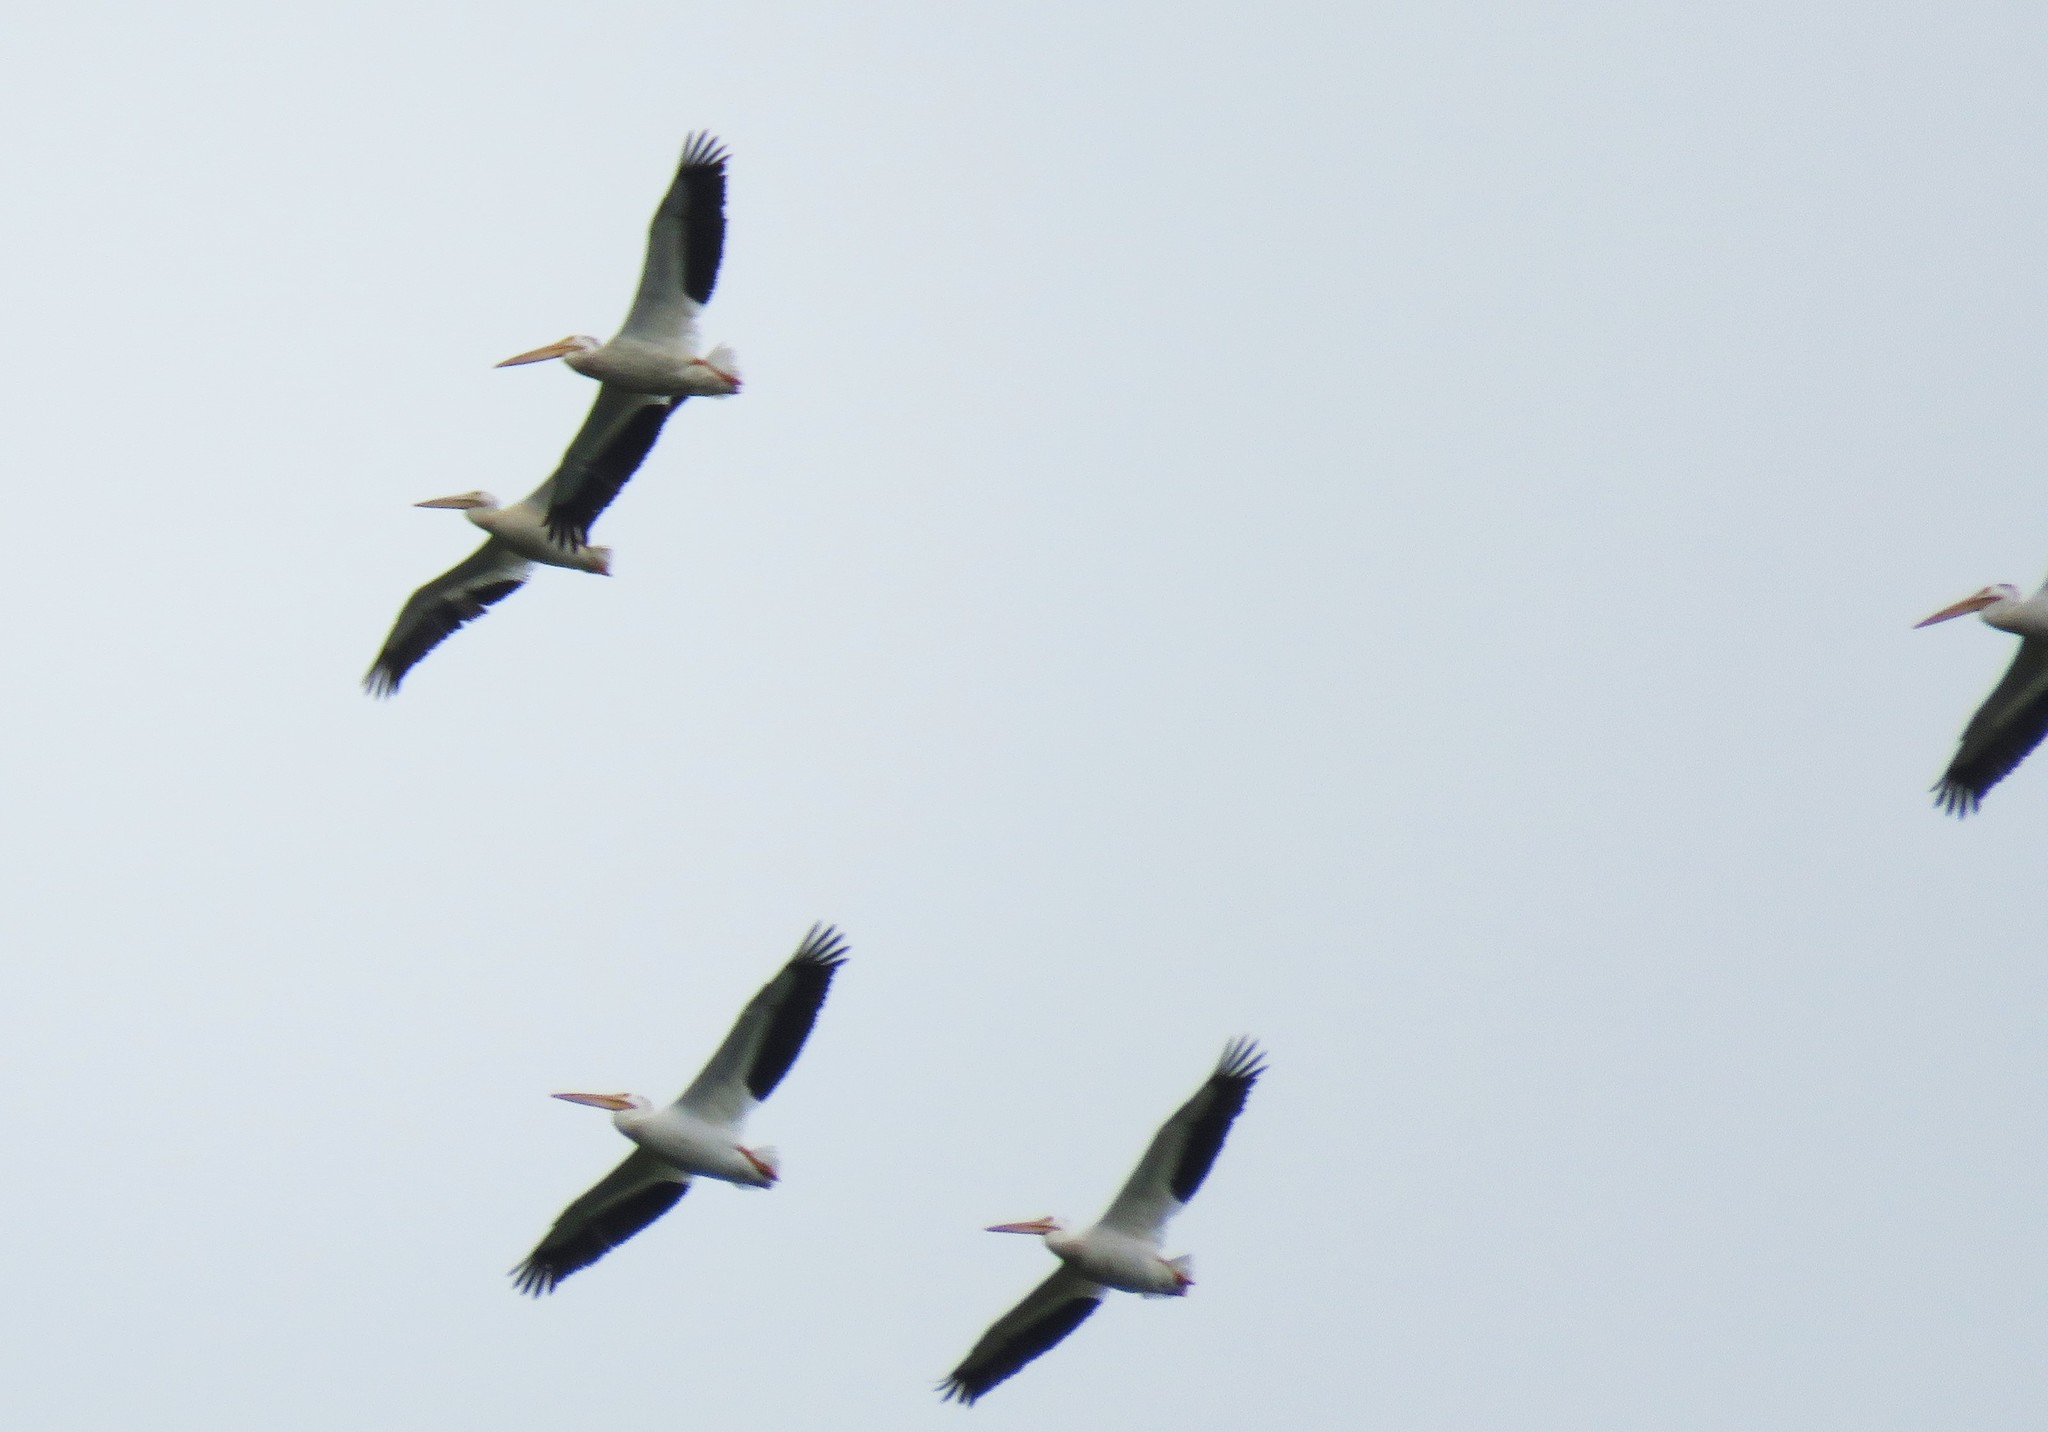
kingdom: Animalia
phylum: Chordata
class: Aves
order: Pelecaniformes
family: Pelecanidae
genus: Pelecanus
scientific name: Pelecanus erythrorhynchos
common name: American white pelican
